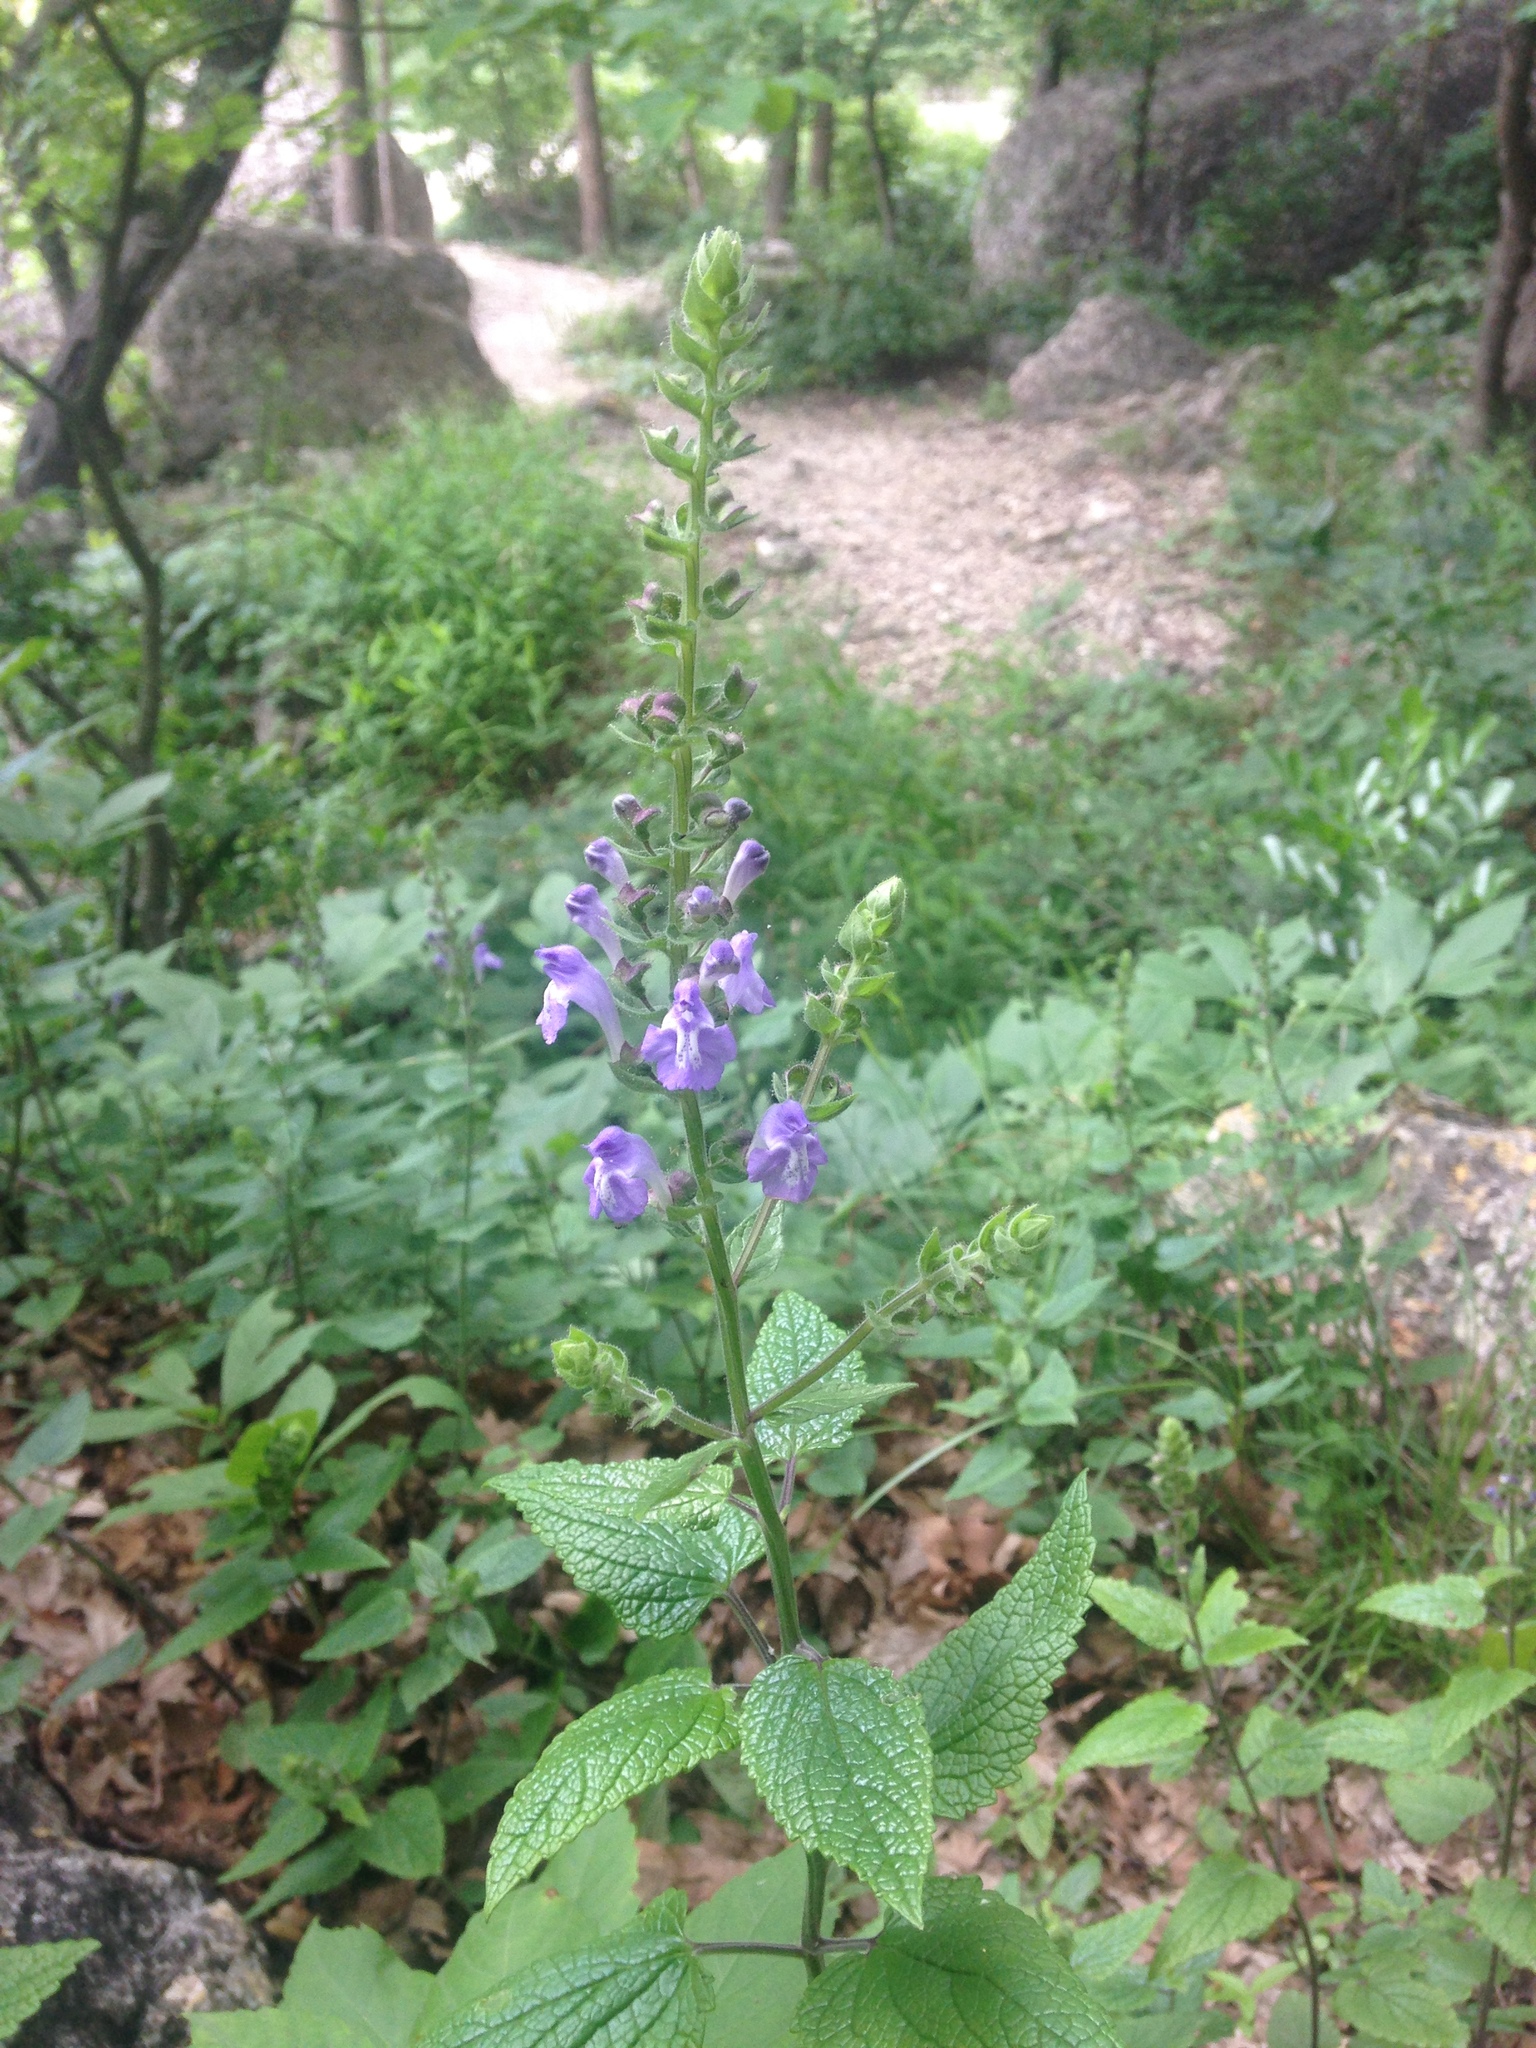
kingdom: Plantae
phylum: Tracheophyta
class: Magnoliopsida
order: Lamiales
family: Lamiaceae
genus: Scutellaria
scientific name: Scutellaria ovata
